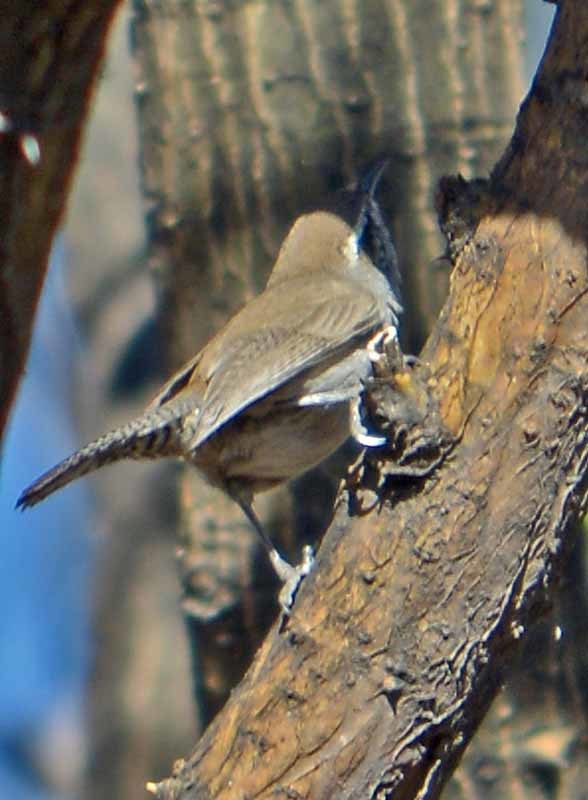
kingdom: Animalia
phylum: Chordata
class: Aves
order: Passeriformes
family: Troglodytidae
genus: Thryomanes
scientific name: Thryomanes bewickii
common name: Bewick's wren
